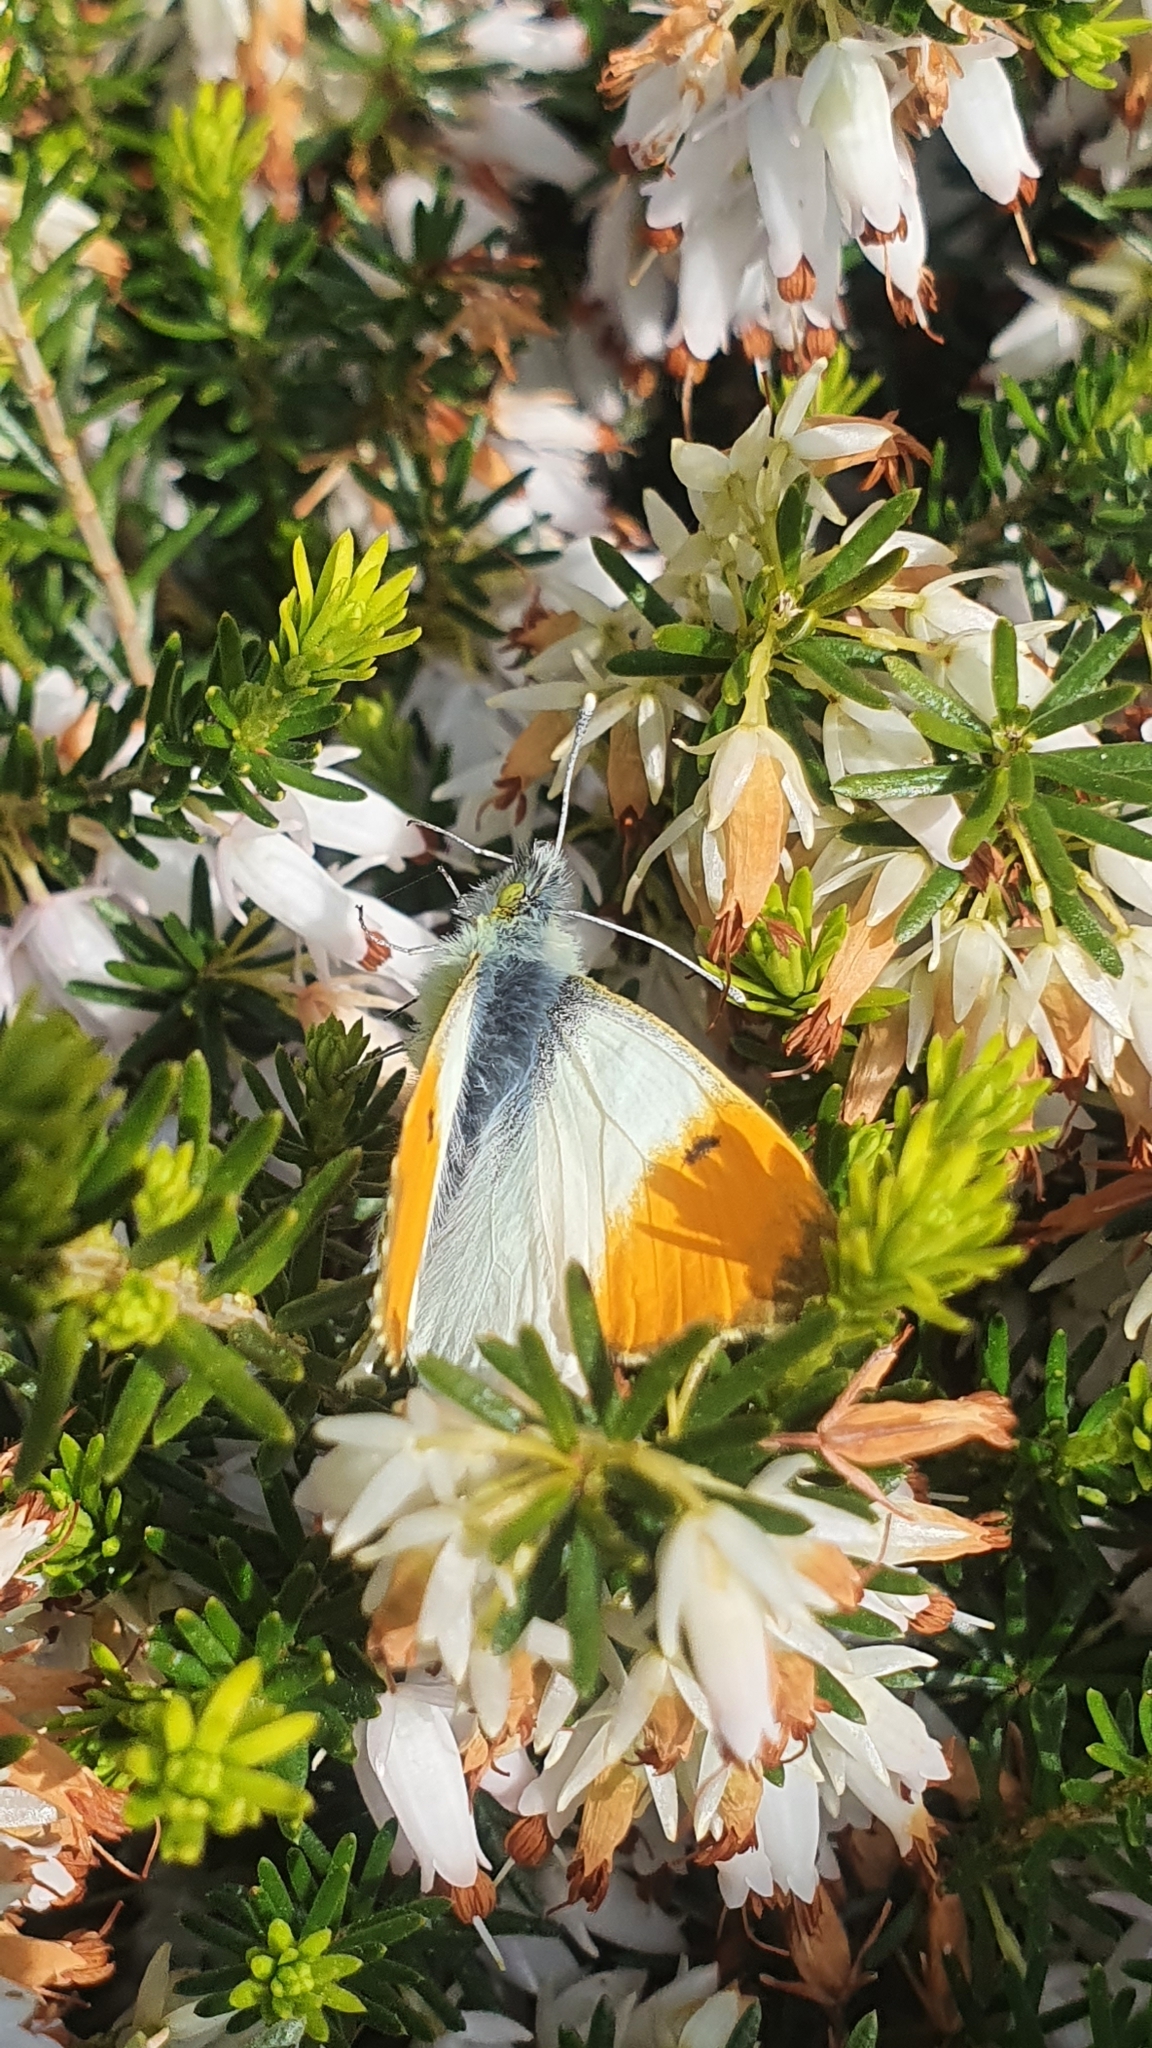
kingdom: Animalia
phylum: Arthropoda
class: Insecta
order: Lepidoptera
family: Pieridae
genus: Anthocharis
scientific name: Anthocharis cardamines
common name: Orange-tip
